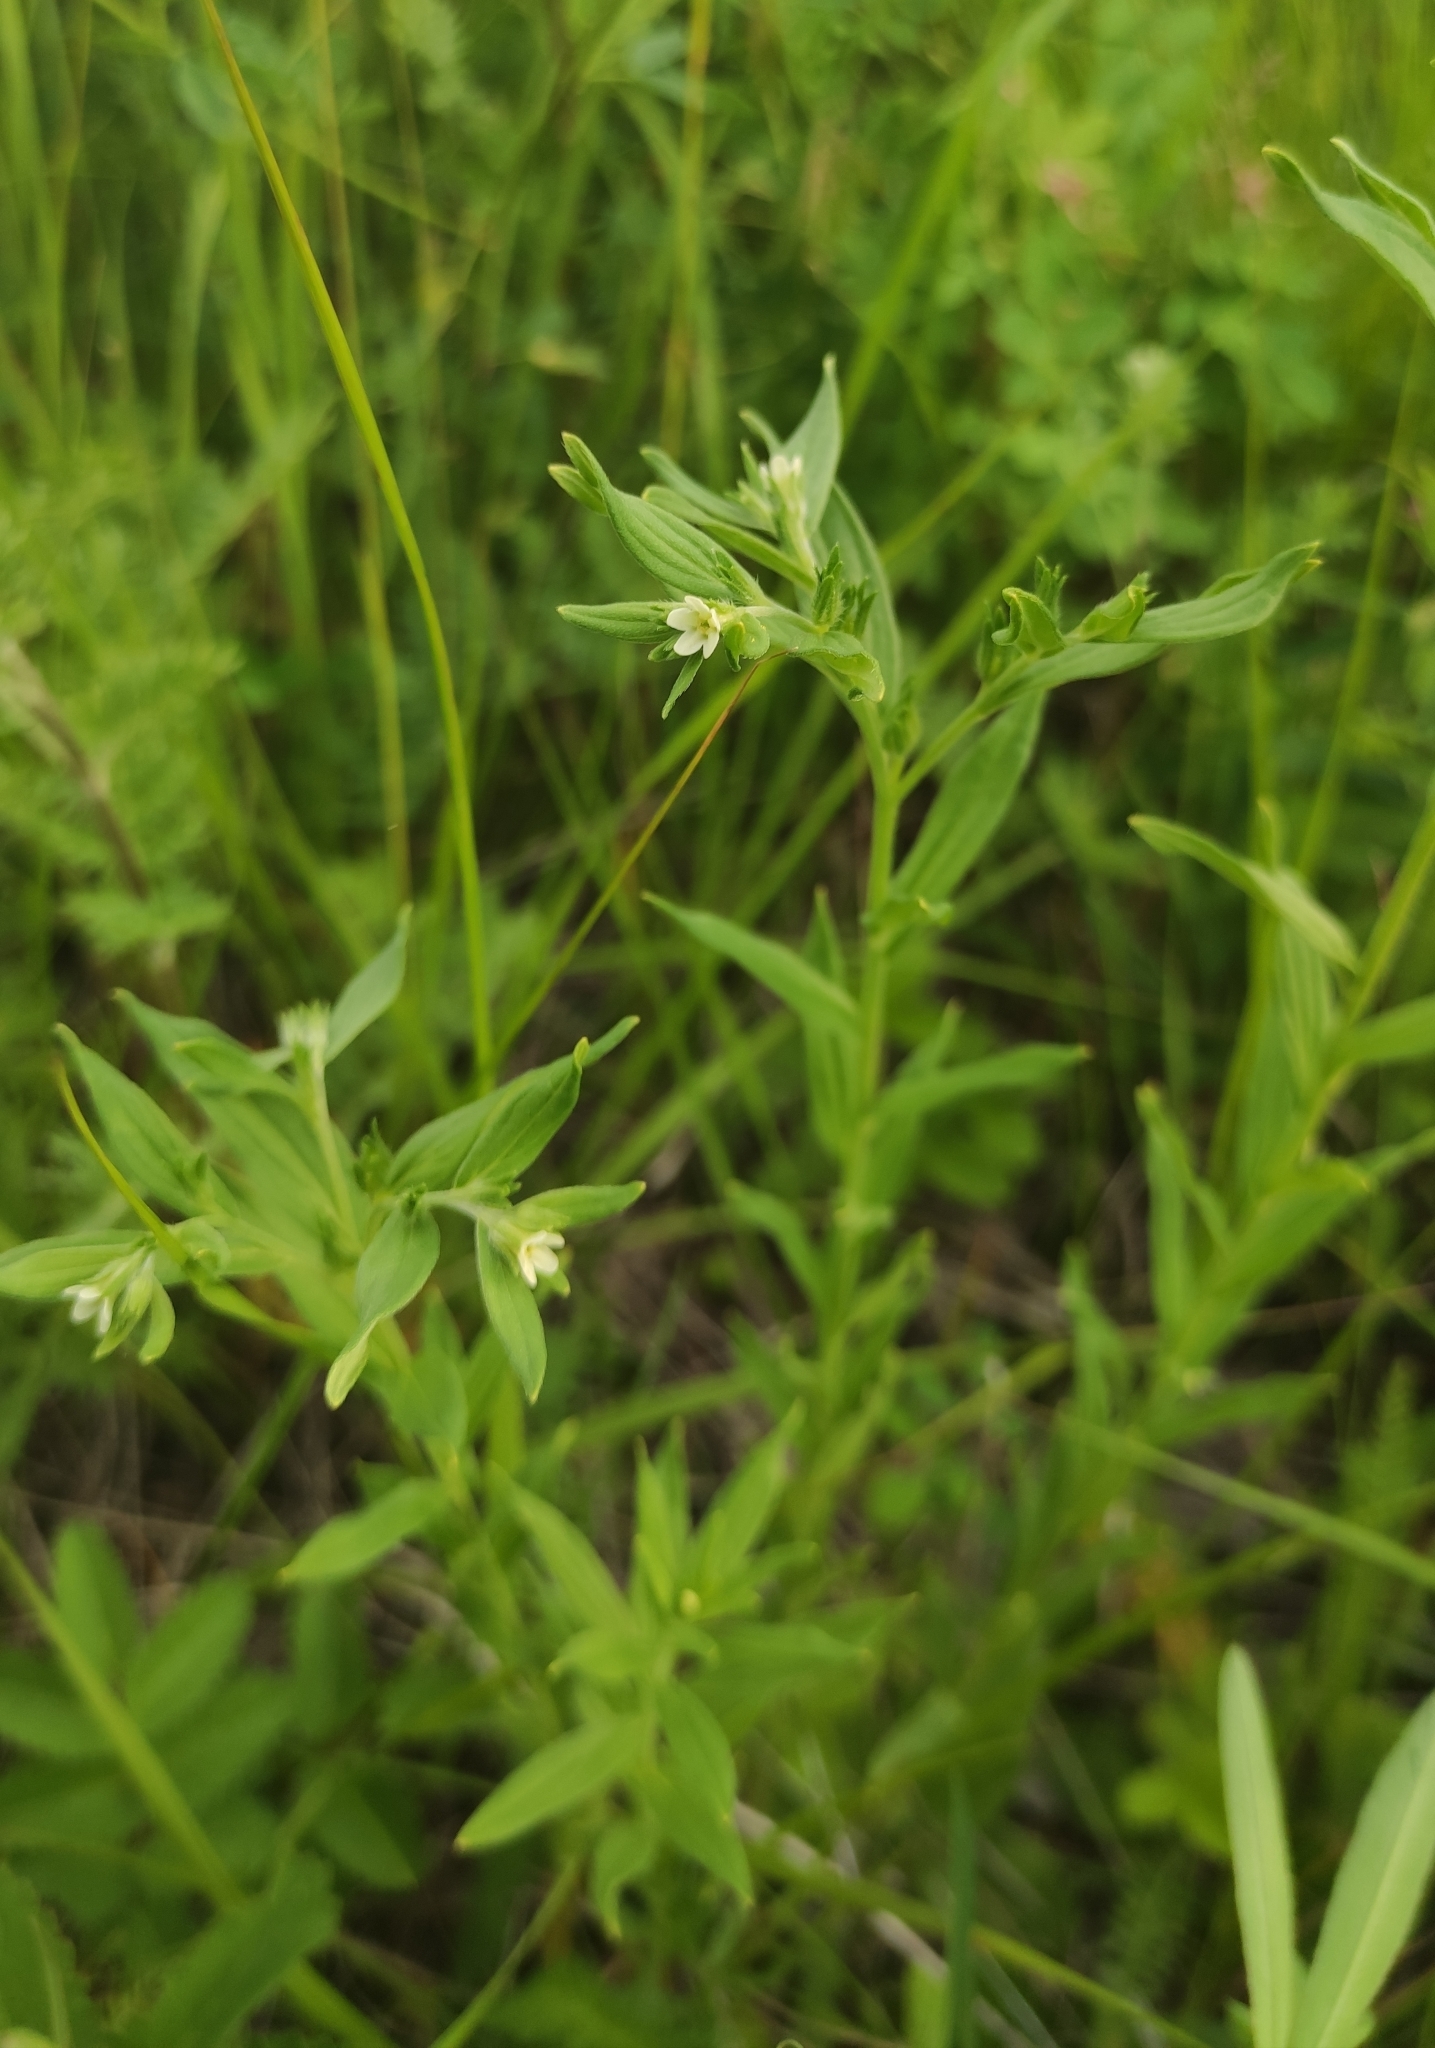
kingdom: Plantae
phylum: Tracheophyta
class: Magnoliopsida
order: Boraginales
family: Boraginaceae
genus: Lithospermum
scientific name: Lithospermum officinale
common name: Common gromwell
